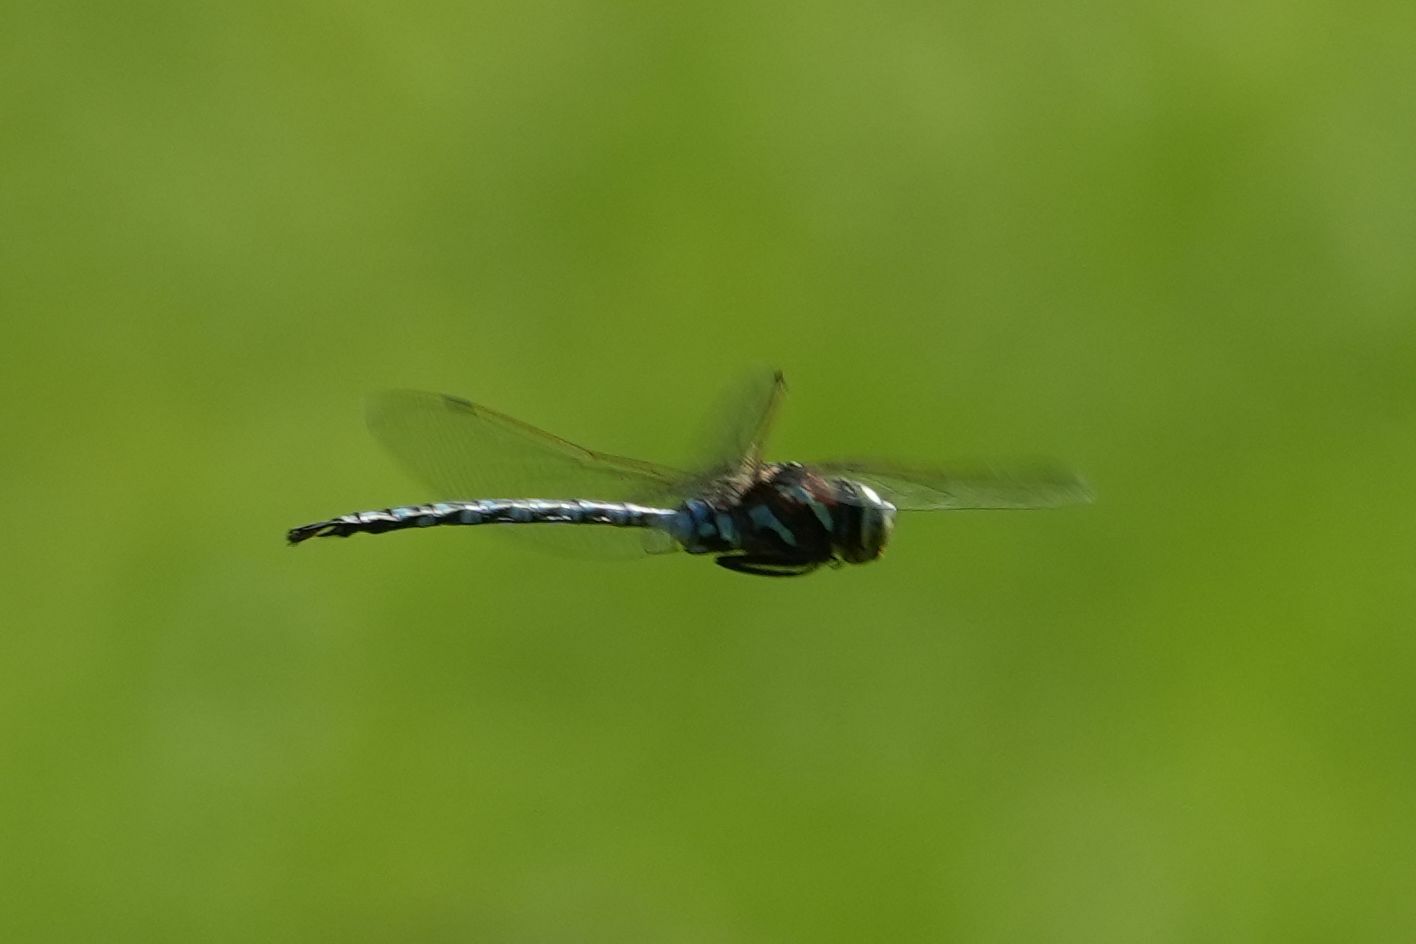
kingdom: Animalia
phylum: Arthropoda
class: Insecta
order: Odonata
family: Aeshnidae
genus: Aeshna
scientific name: Aeshna constricta
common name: Lance-tipped darner
